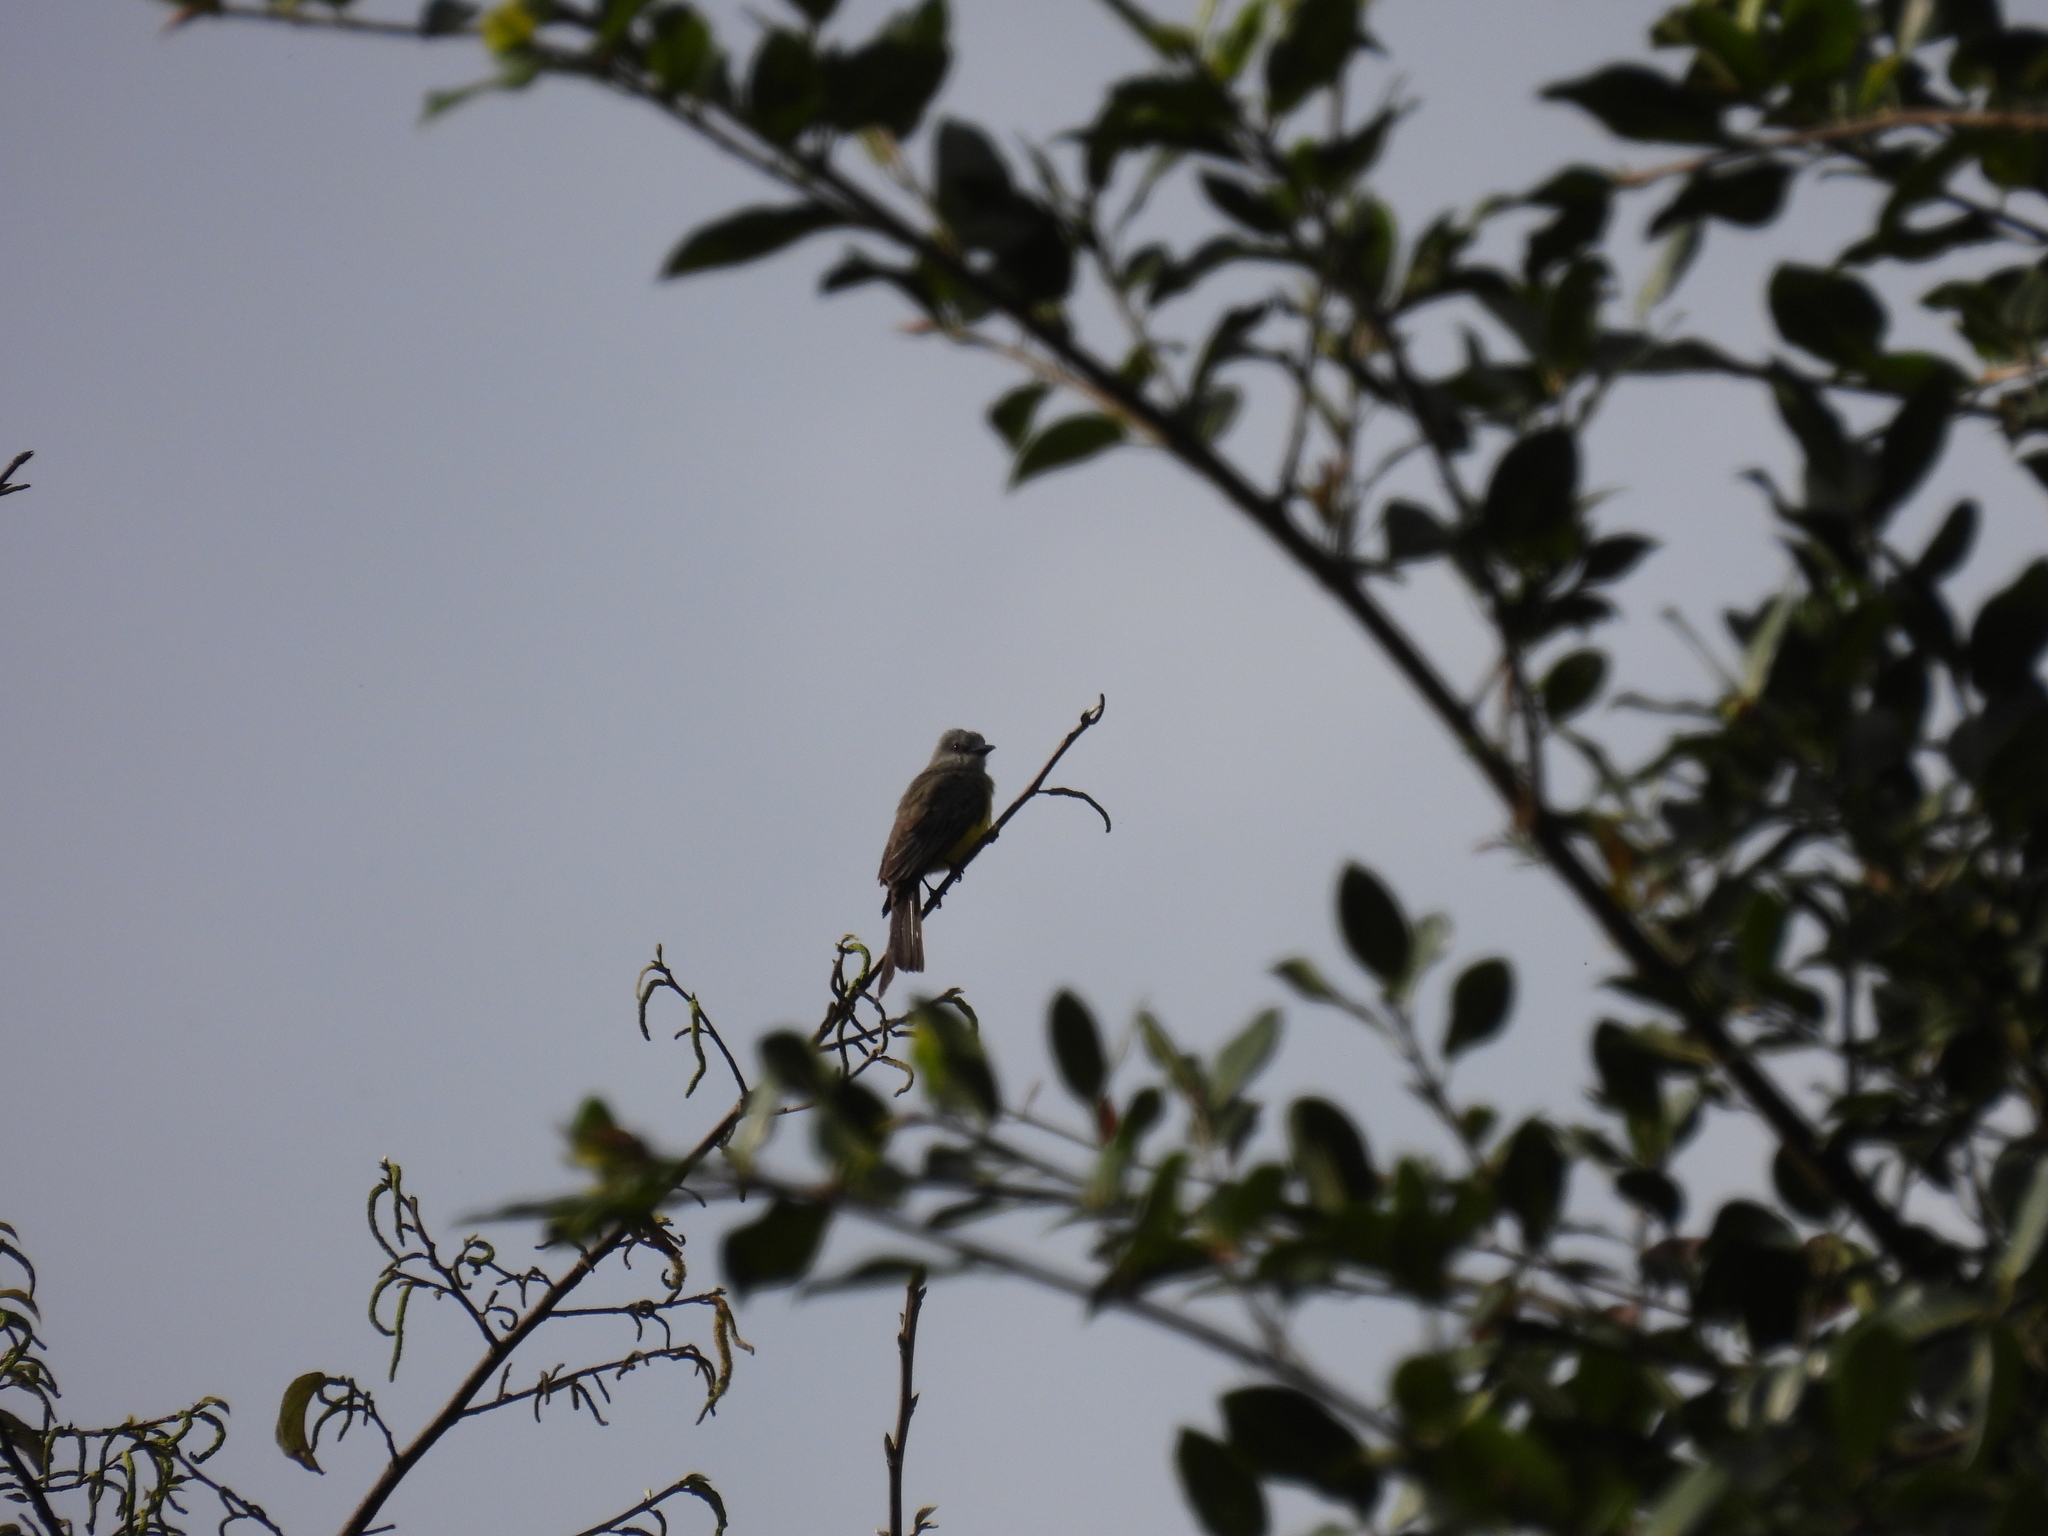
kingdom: Animalia
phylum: Chordata
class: Aves
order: Passeriformes
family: Tyrannidae
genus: Tyrannus
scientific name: Tyrannus melancholicus
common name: Tropical kingbird
